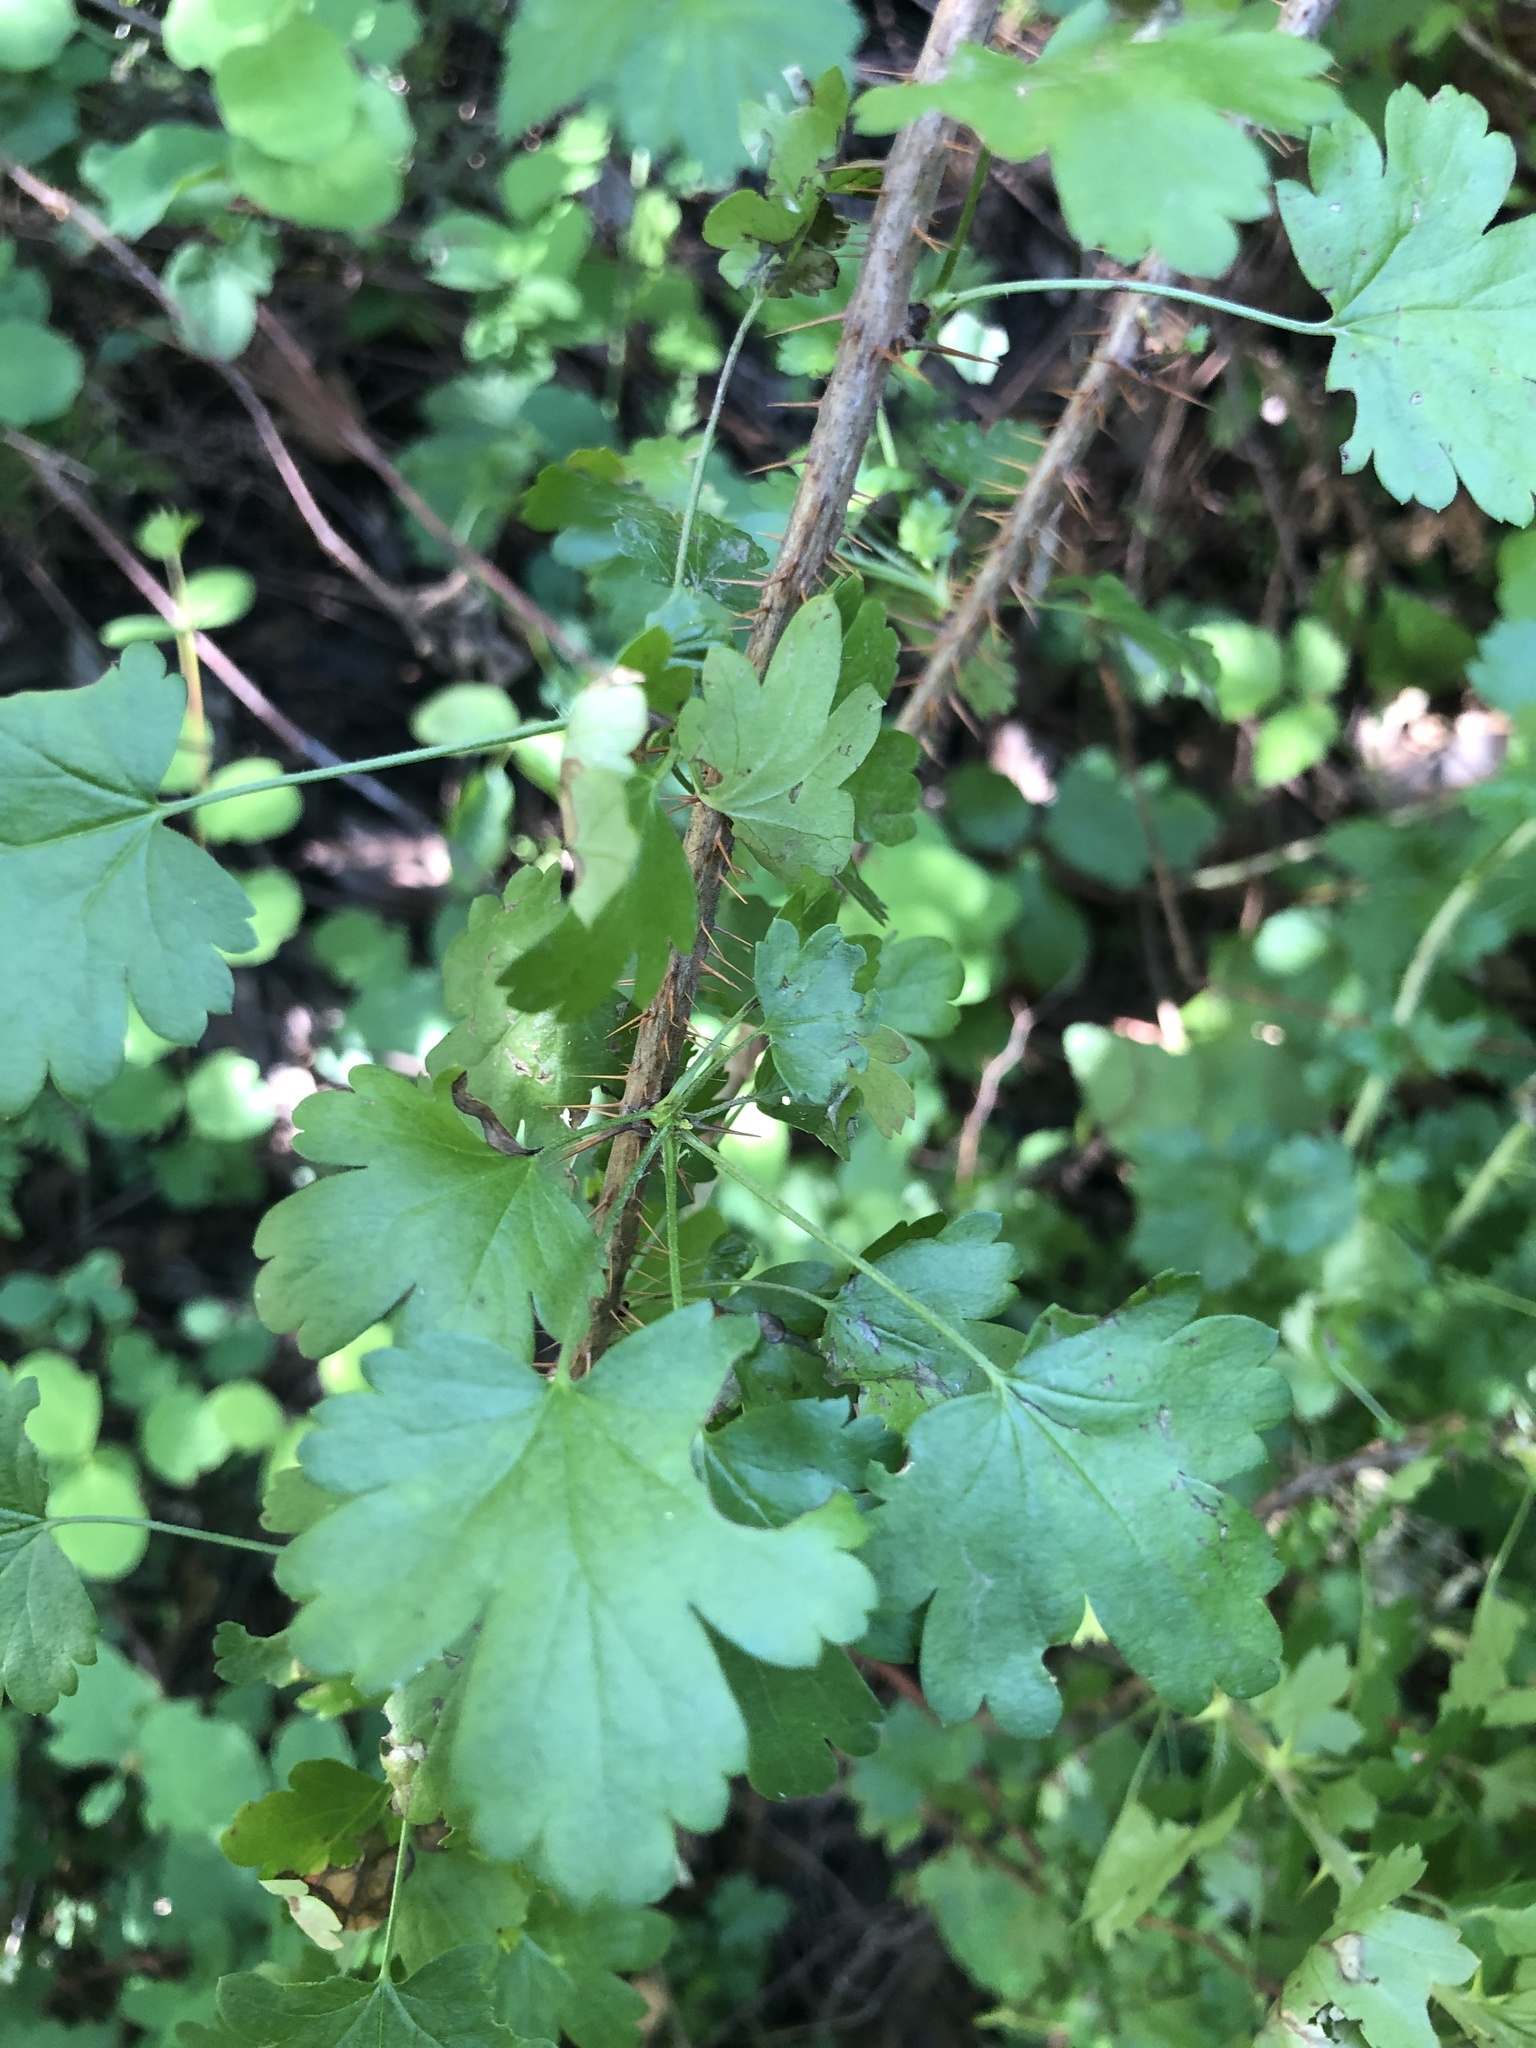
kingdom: Plantae
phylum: Tracheophyta
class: Magnoliopsida
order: Saxifragales
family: Grossulariaceae
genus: Ribes
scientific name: Ribes californicum
